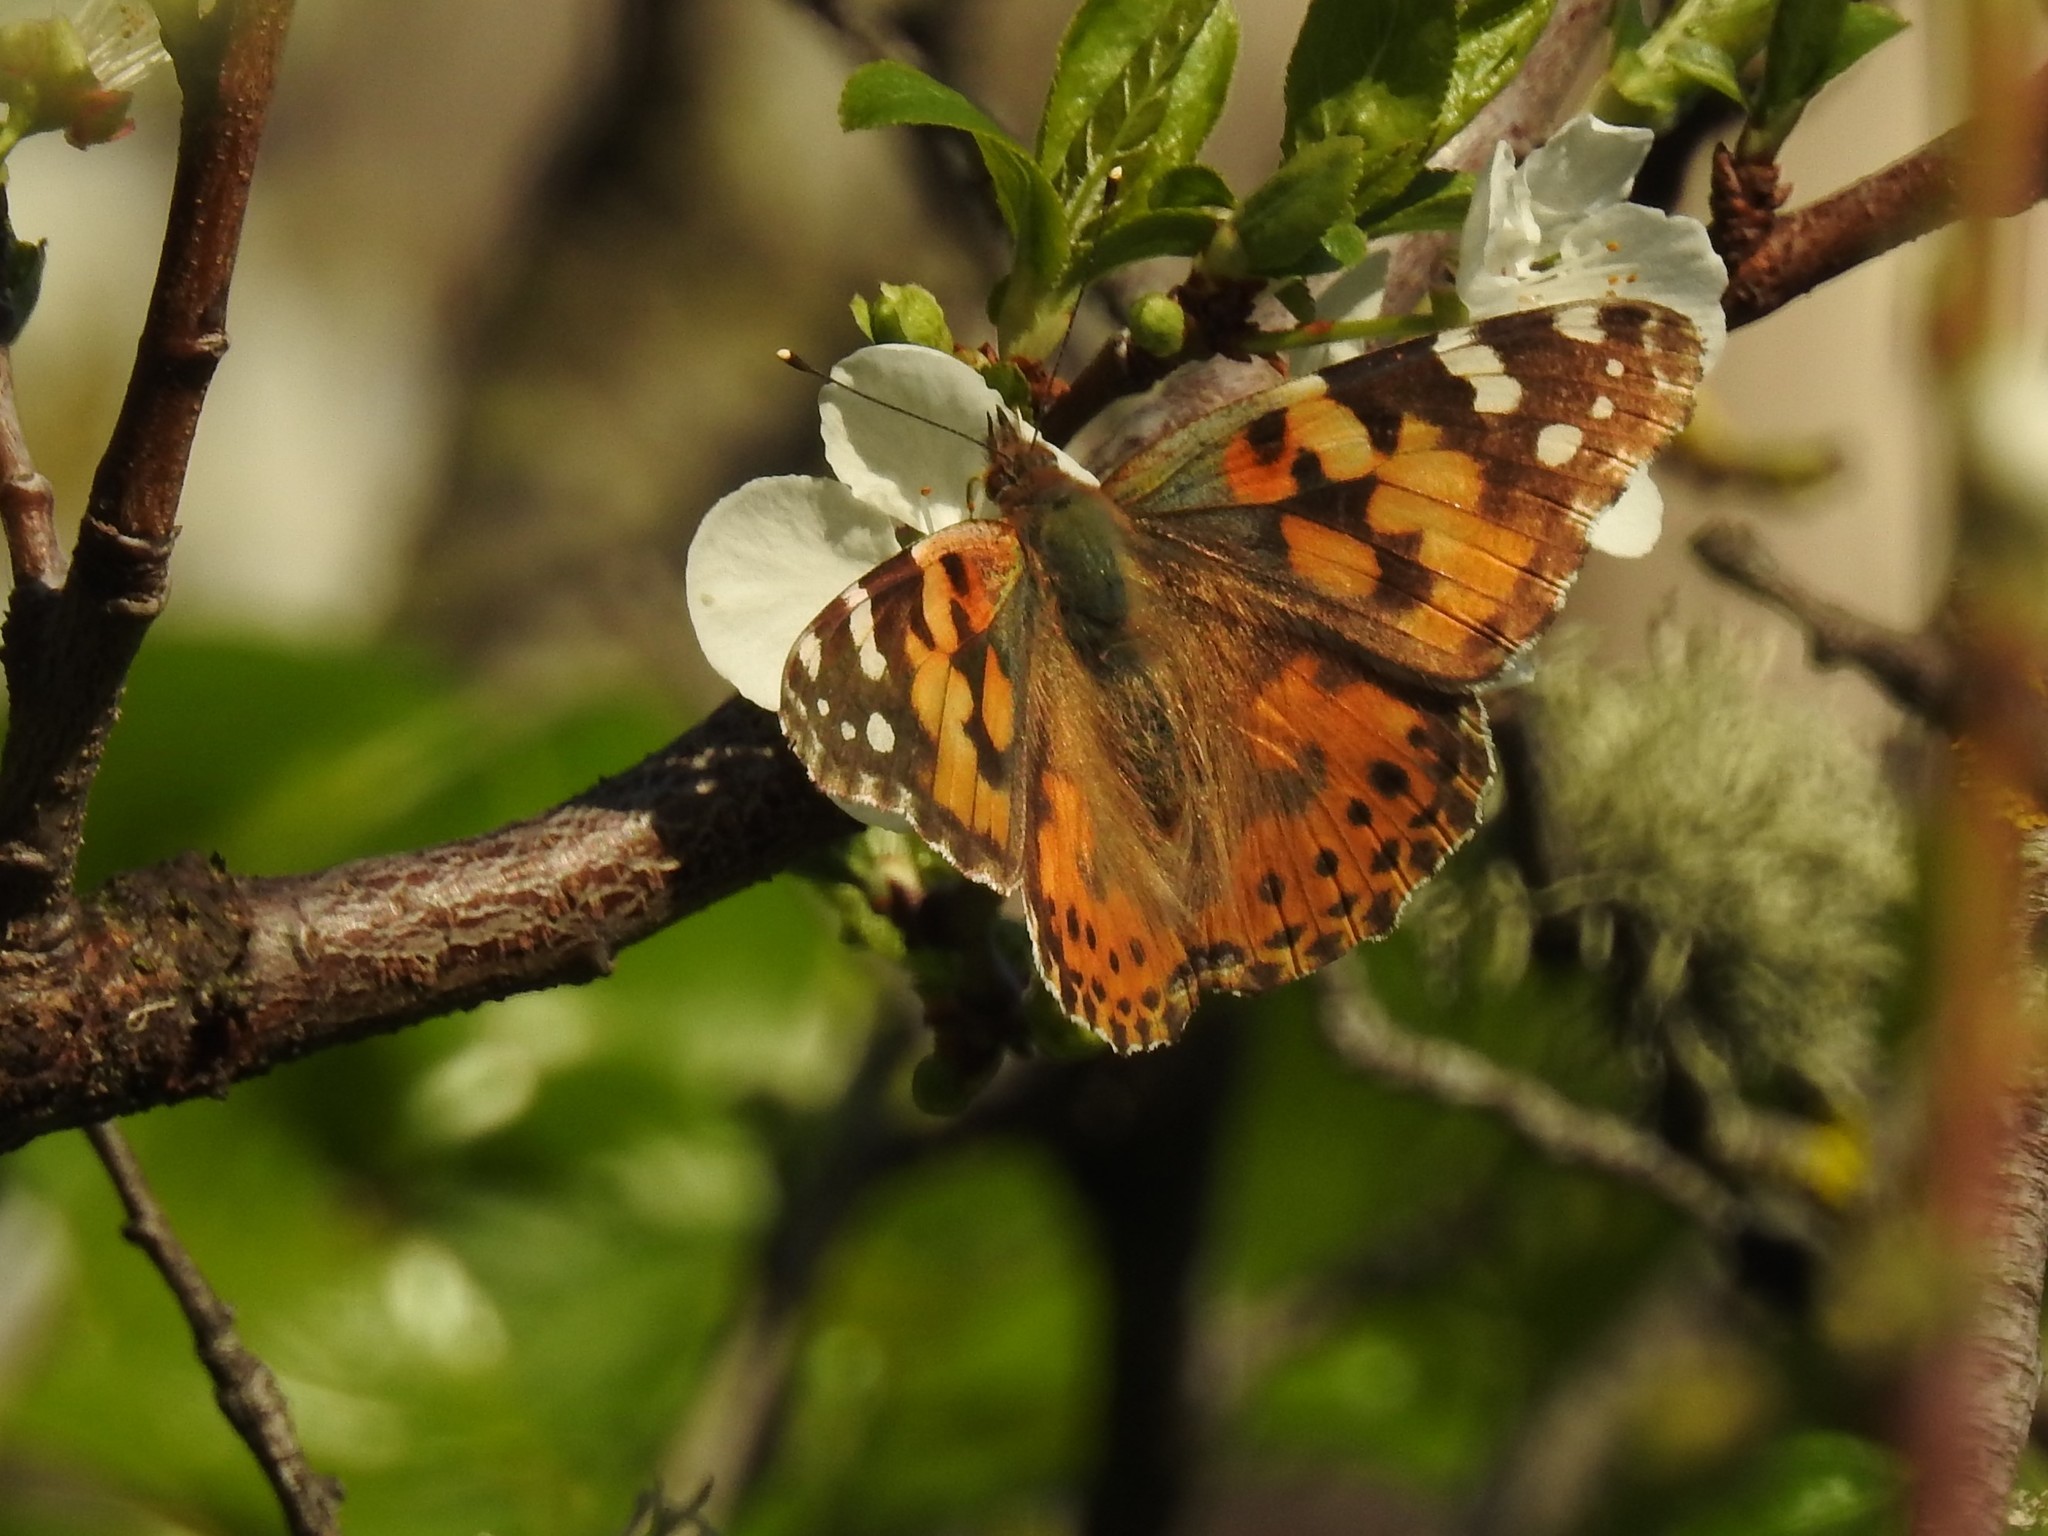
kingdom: Animalia
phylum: Arthropoda
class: Insecta
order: Lepidoptera
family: Nymphalidae
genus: Vanessa
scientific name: Vanessa cardui
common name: Painted lady
